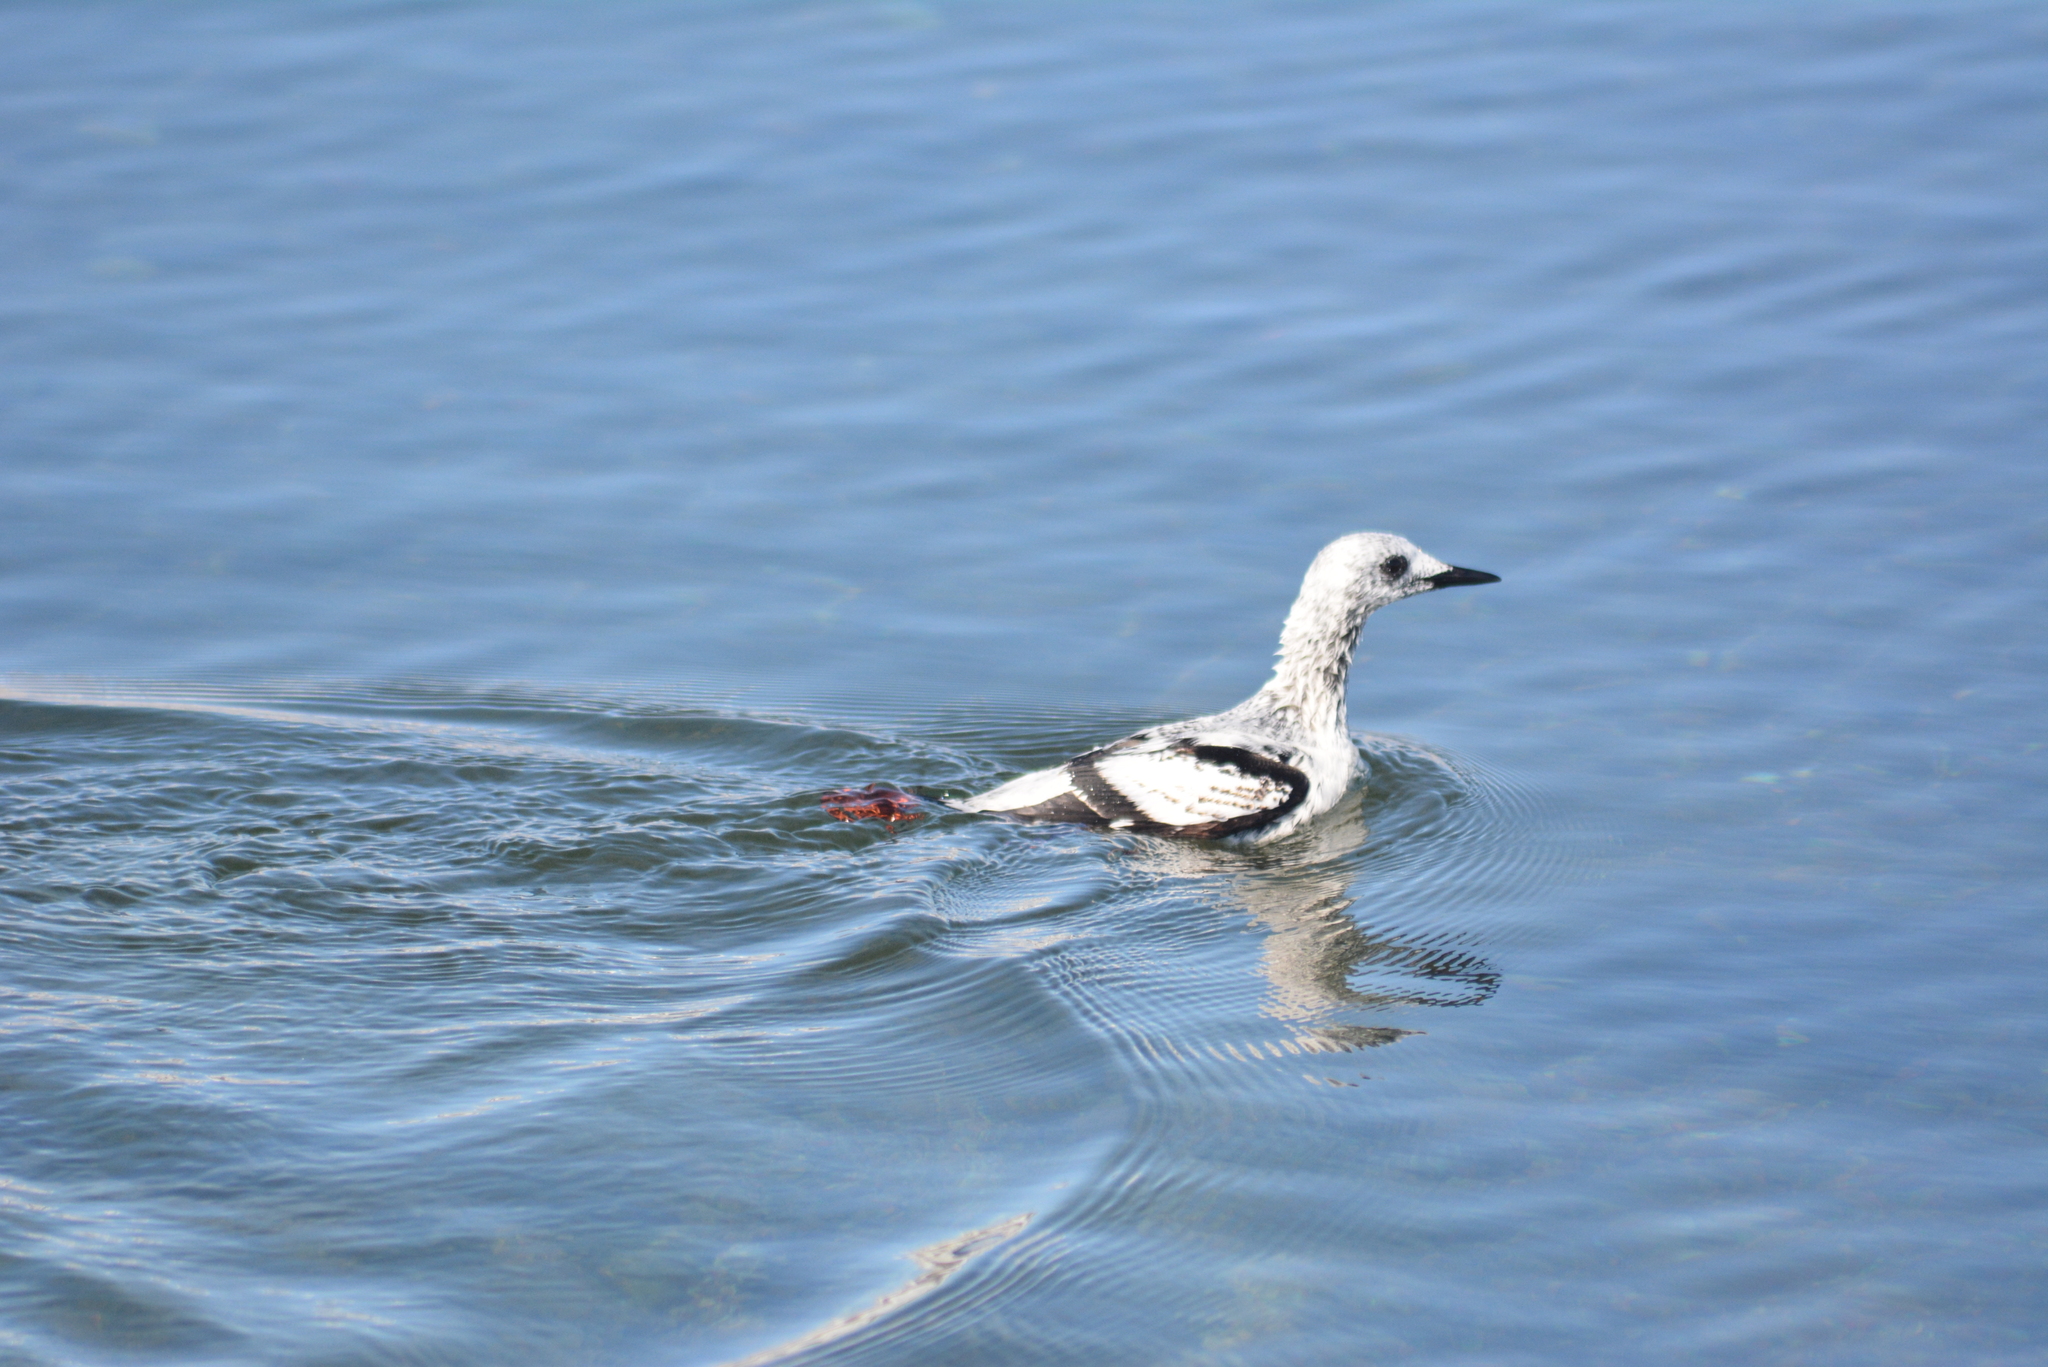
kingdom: Animalia
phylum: Chordata
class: Aves
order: Charadriiformes
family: Alcidae
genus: Cepphus
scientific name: Cepphus grylle
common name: Black guillemot
